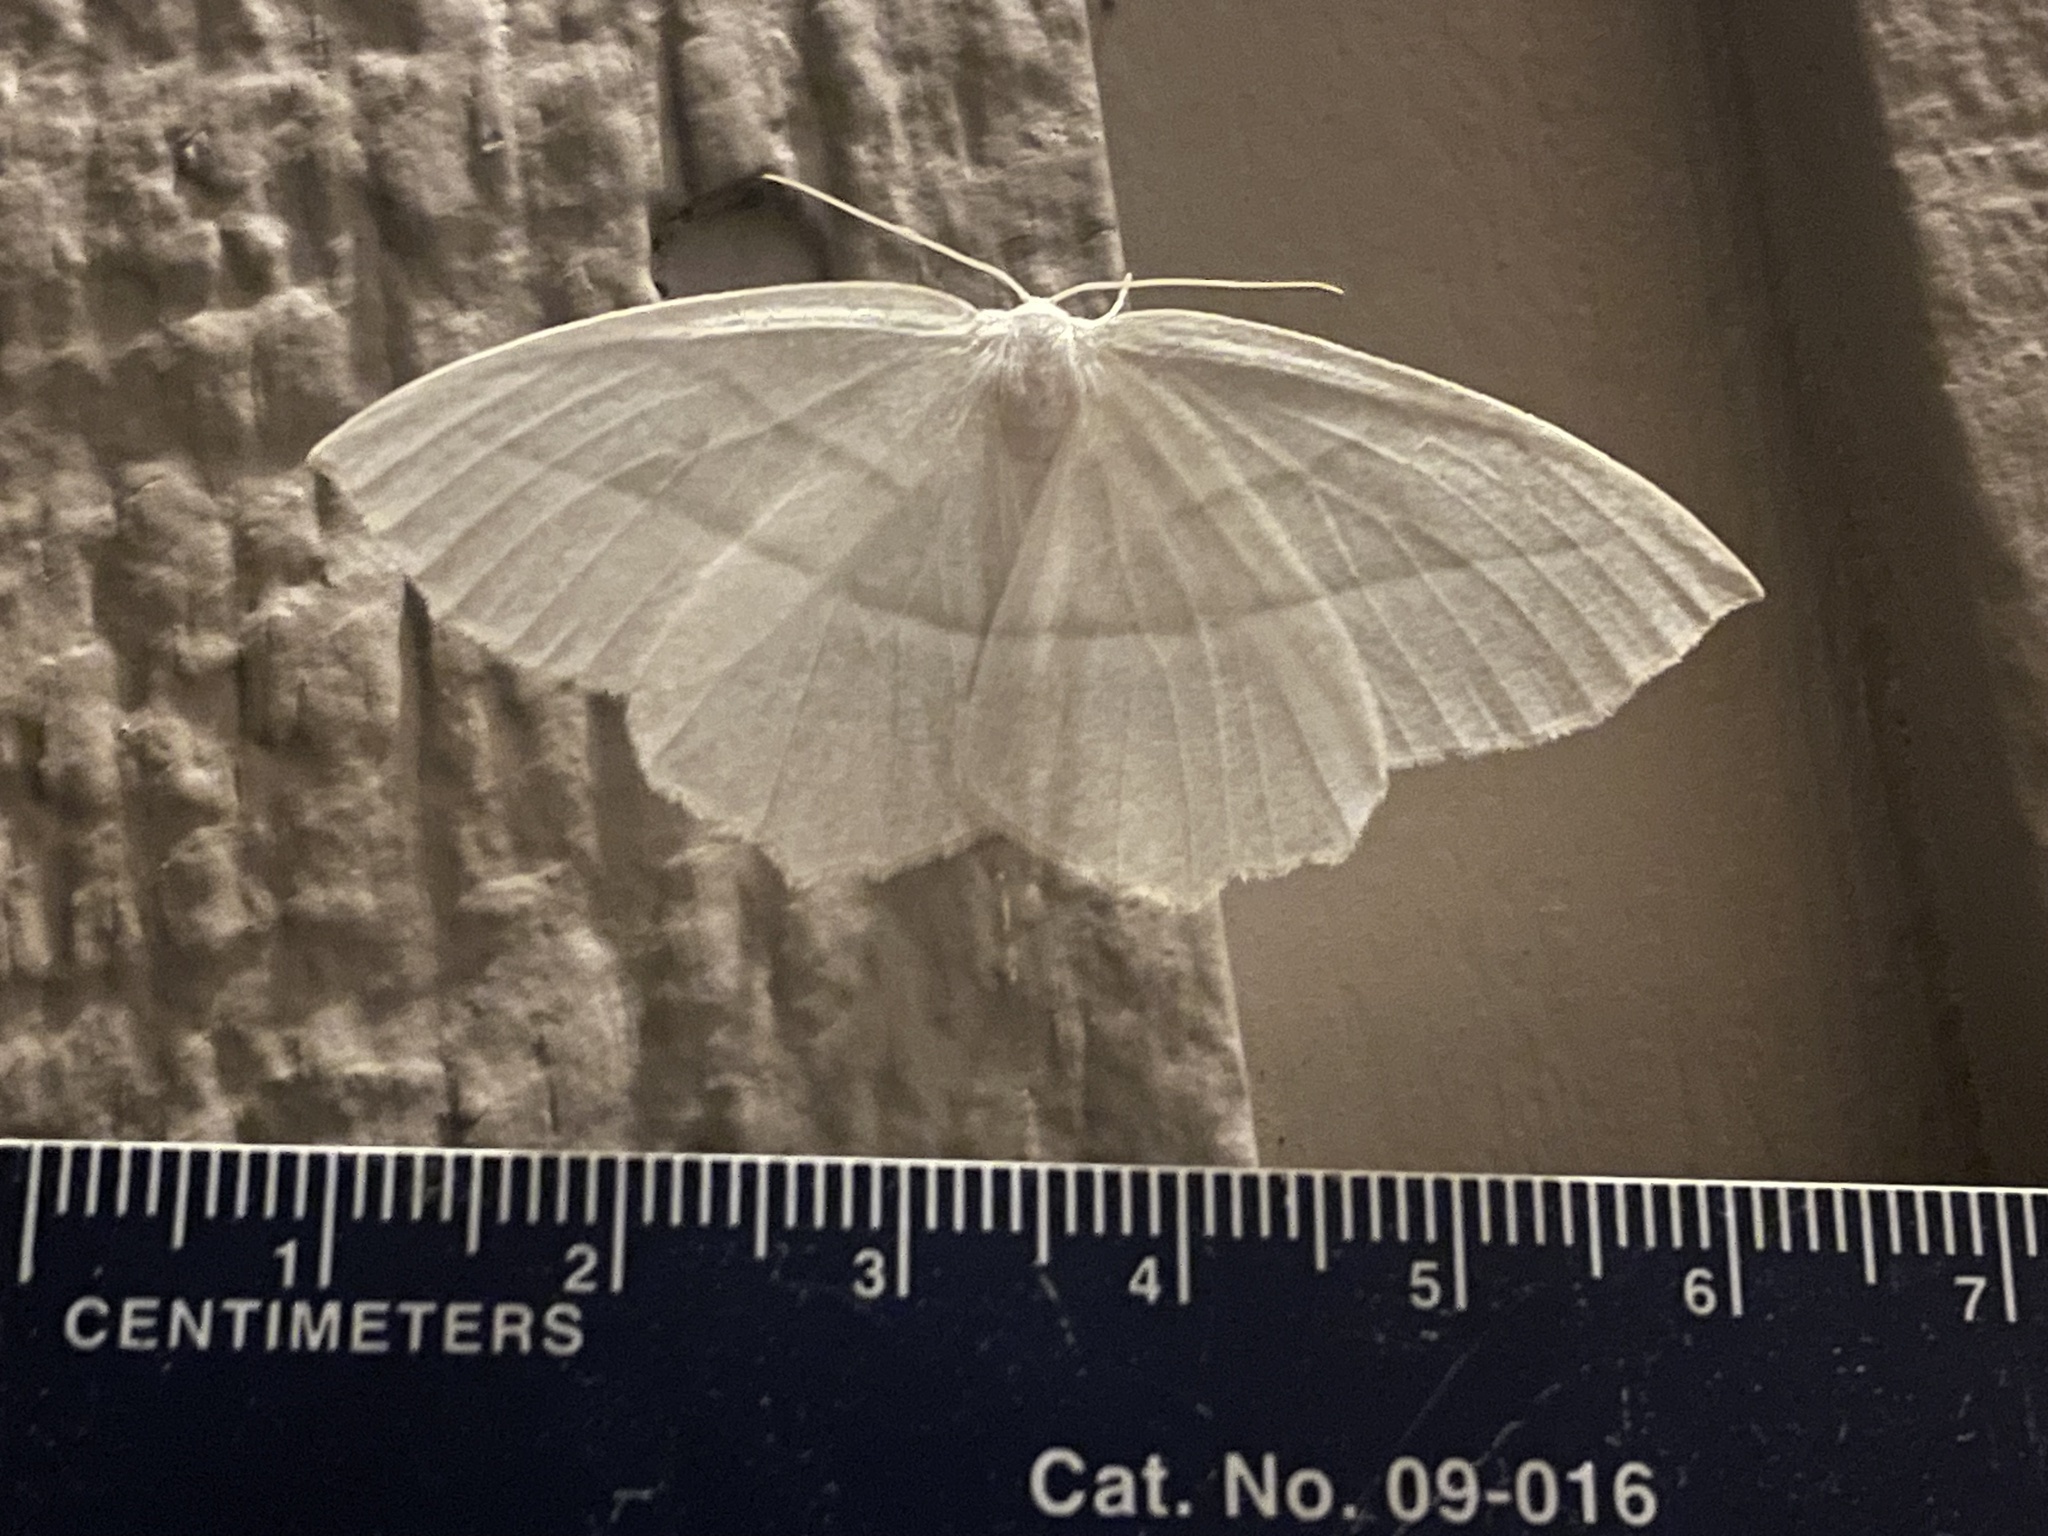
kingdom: Animalia
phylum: Arthropoda
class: Insecta
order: Lepidoptera
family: Geometridae
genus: Campaea
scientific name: Campaea perlata
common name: Fringed looper
